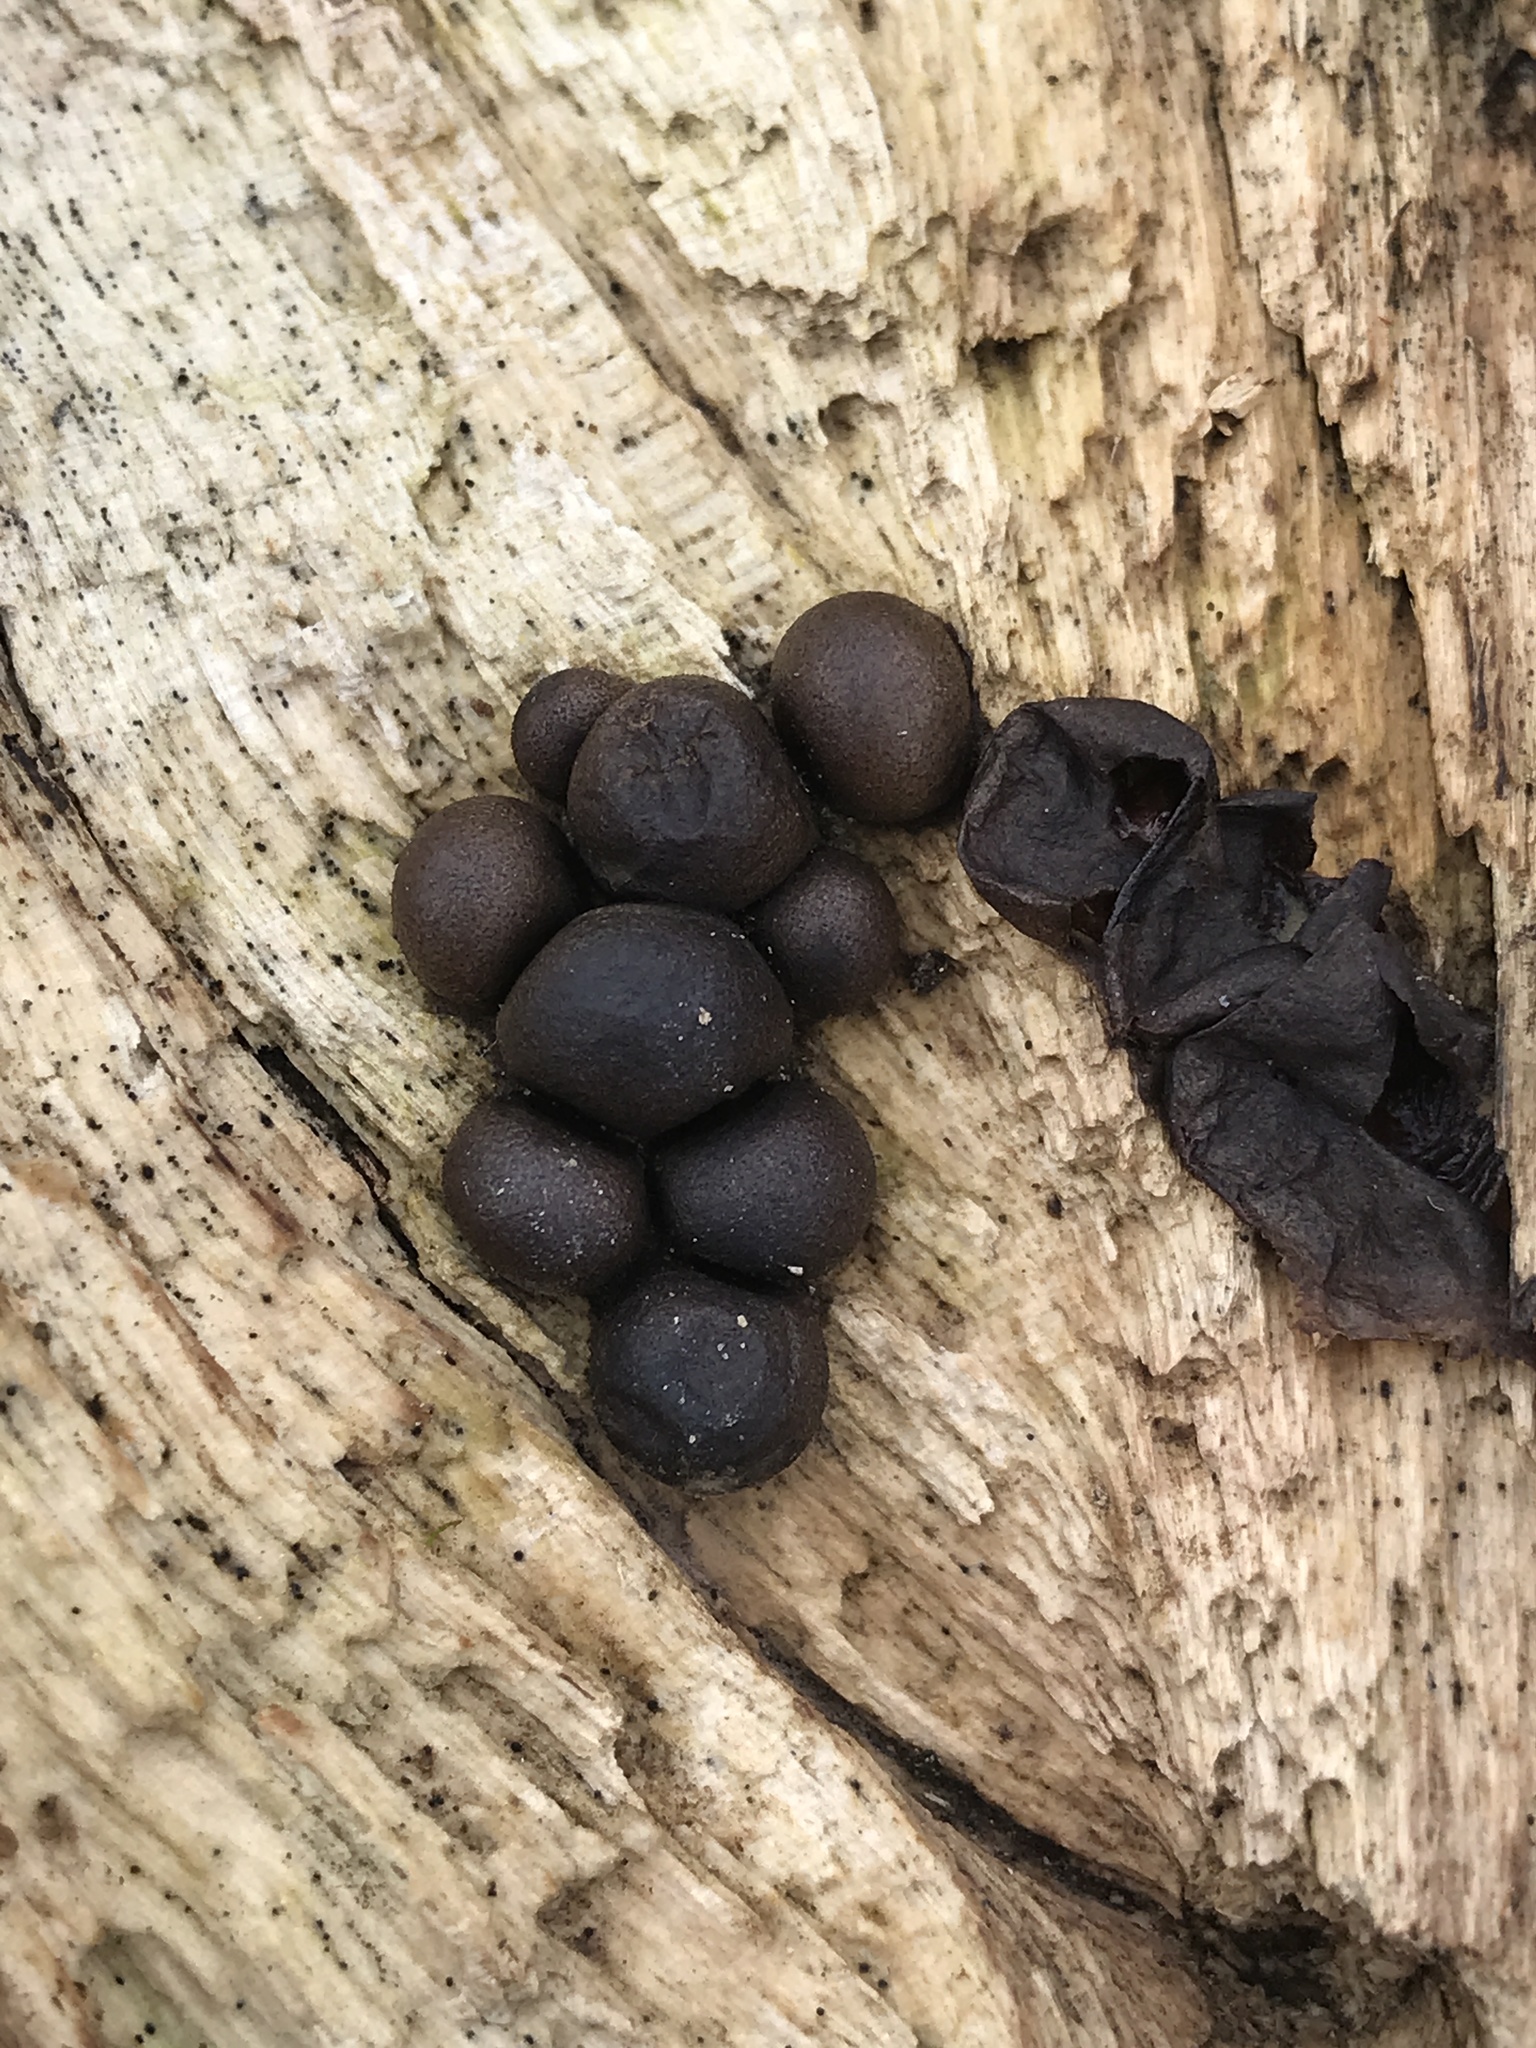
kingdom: Protozoa
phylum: Mycetozoa
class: Myxomycetes
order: Cribrariales
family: Tubiferaceae
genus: Lycogala
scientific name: Lycogala epidendrum
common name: Wolf's milk
